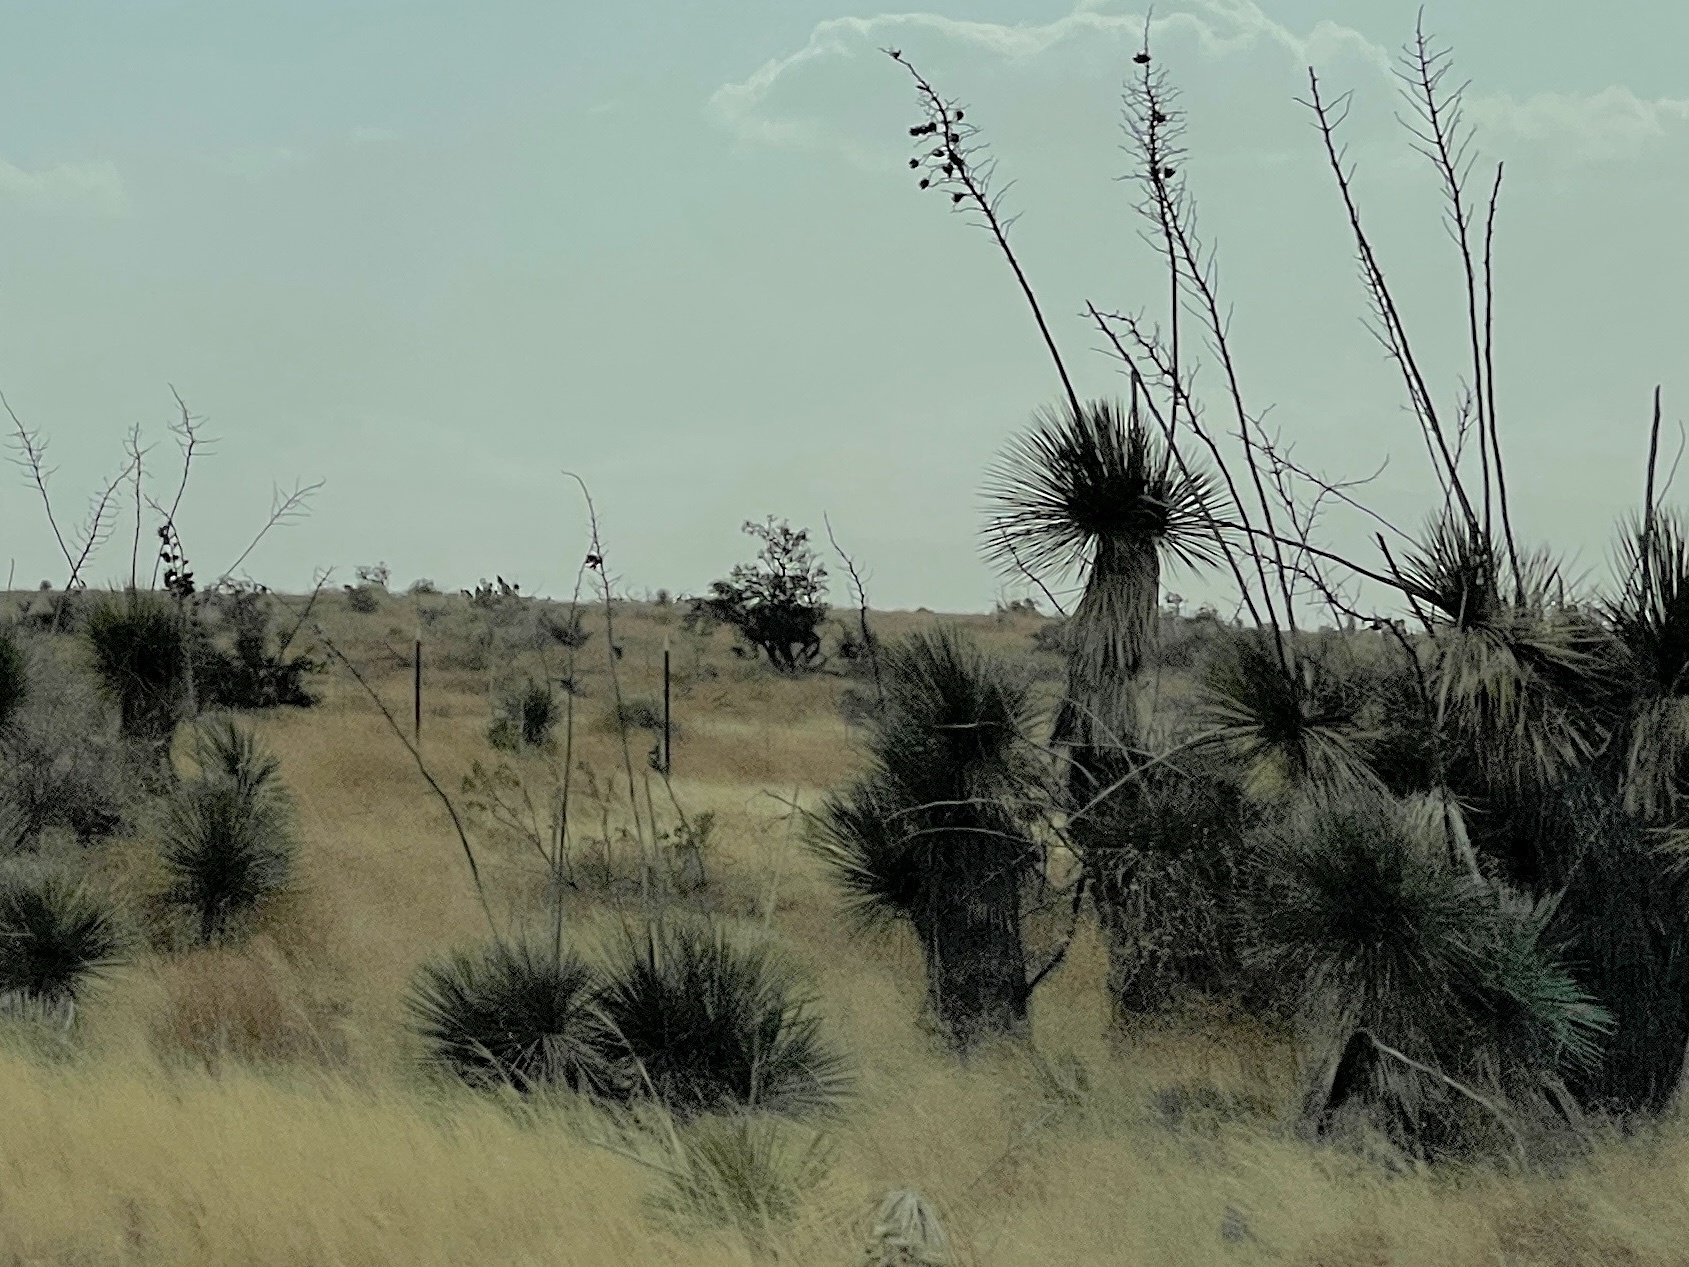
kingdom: Plantae
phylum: Tracheophyta
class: Liliopsida
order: Asparagales
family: Asparagaceae
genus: Yucca
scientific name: Yucca elata
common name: Palmella
